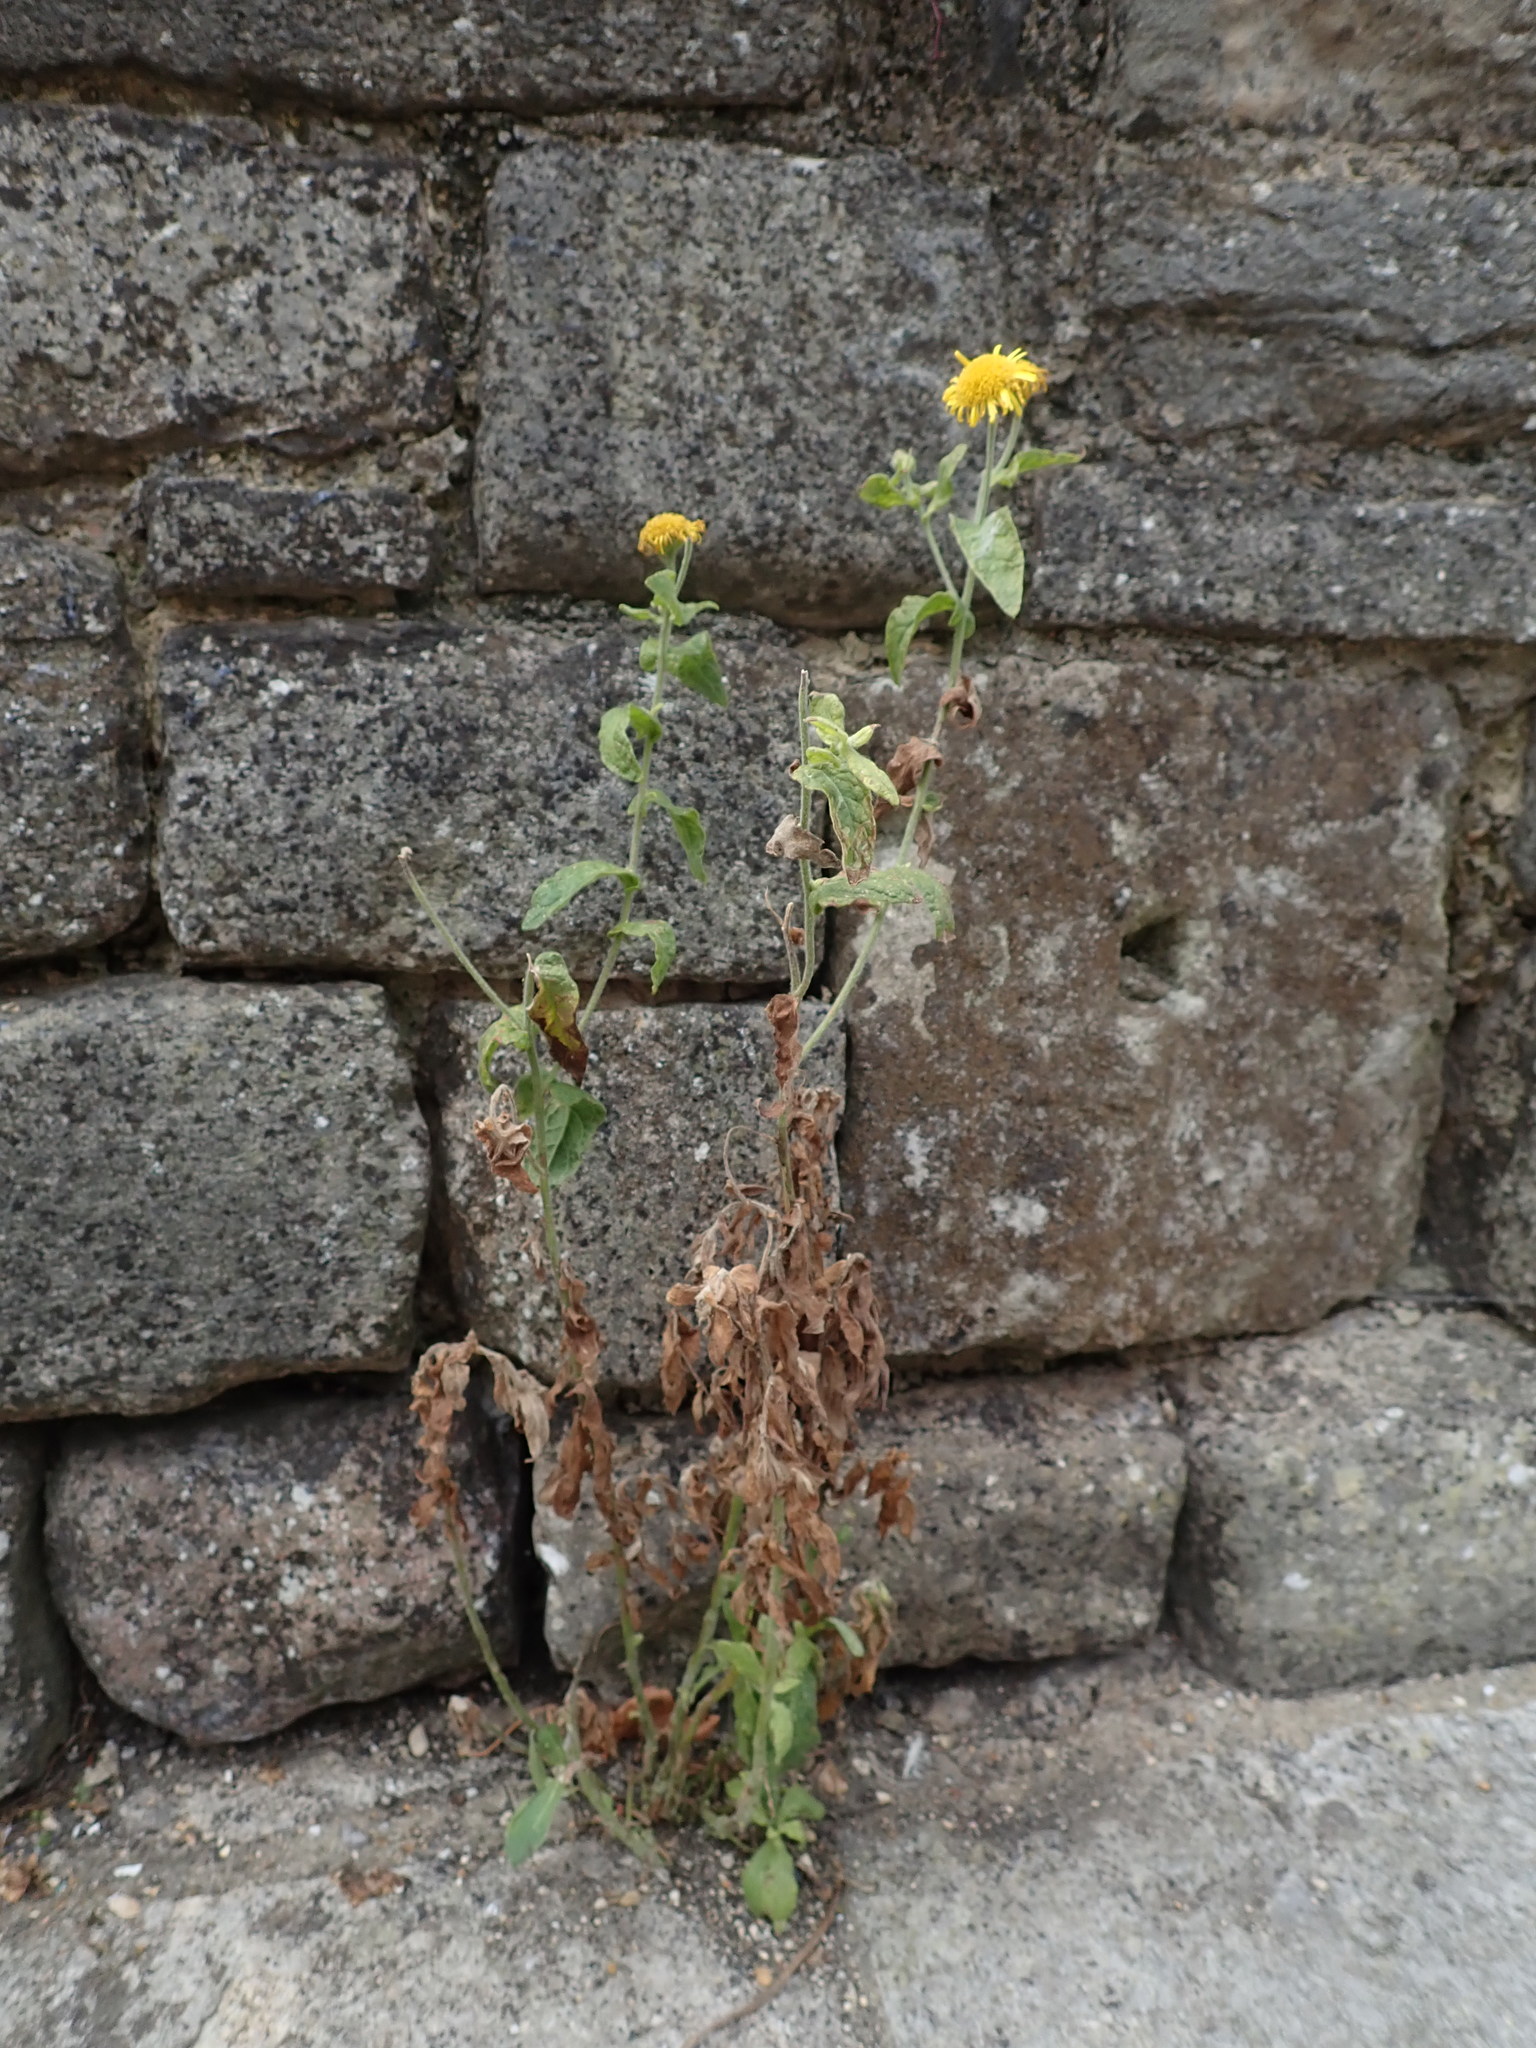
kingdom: Plantae
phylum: Tracheophyta
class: Magnoliopsida
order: Asterales
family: Asteraceae
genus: Pulicaria
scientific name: Pulicaria dysenterica
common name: Common fleabane
